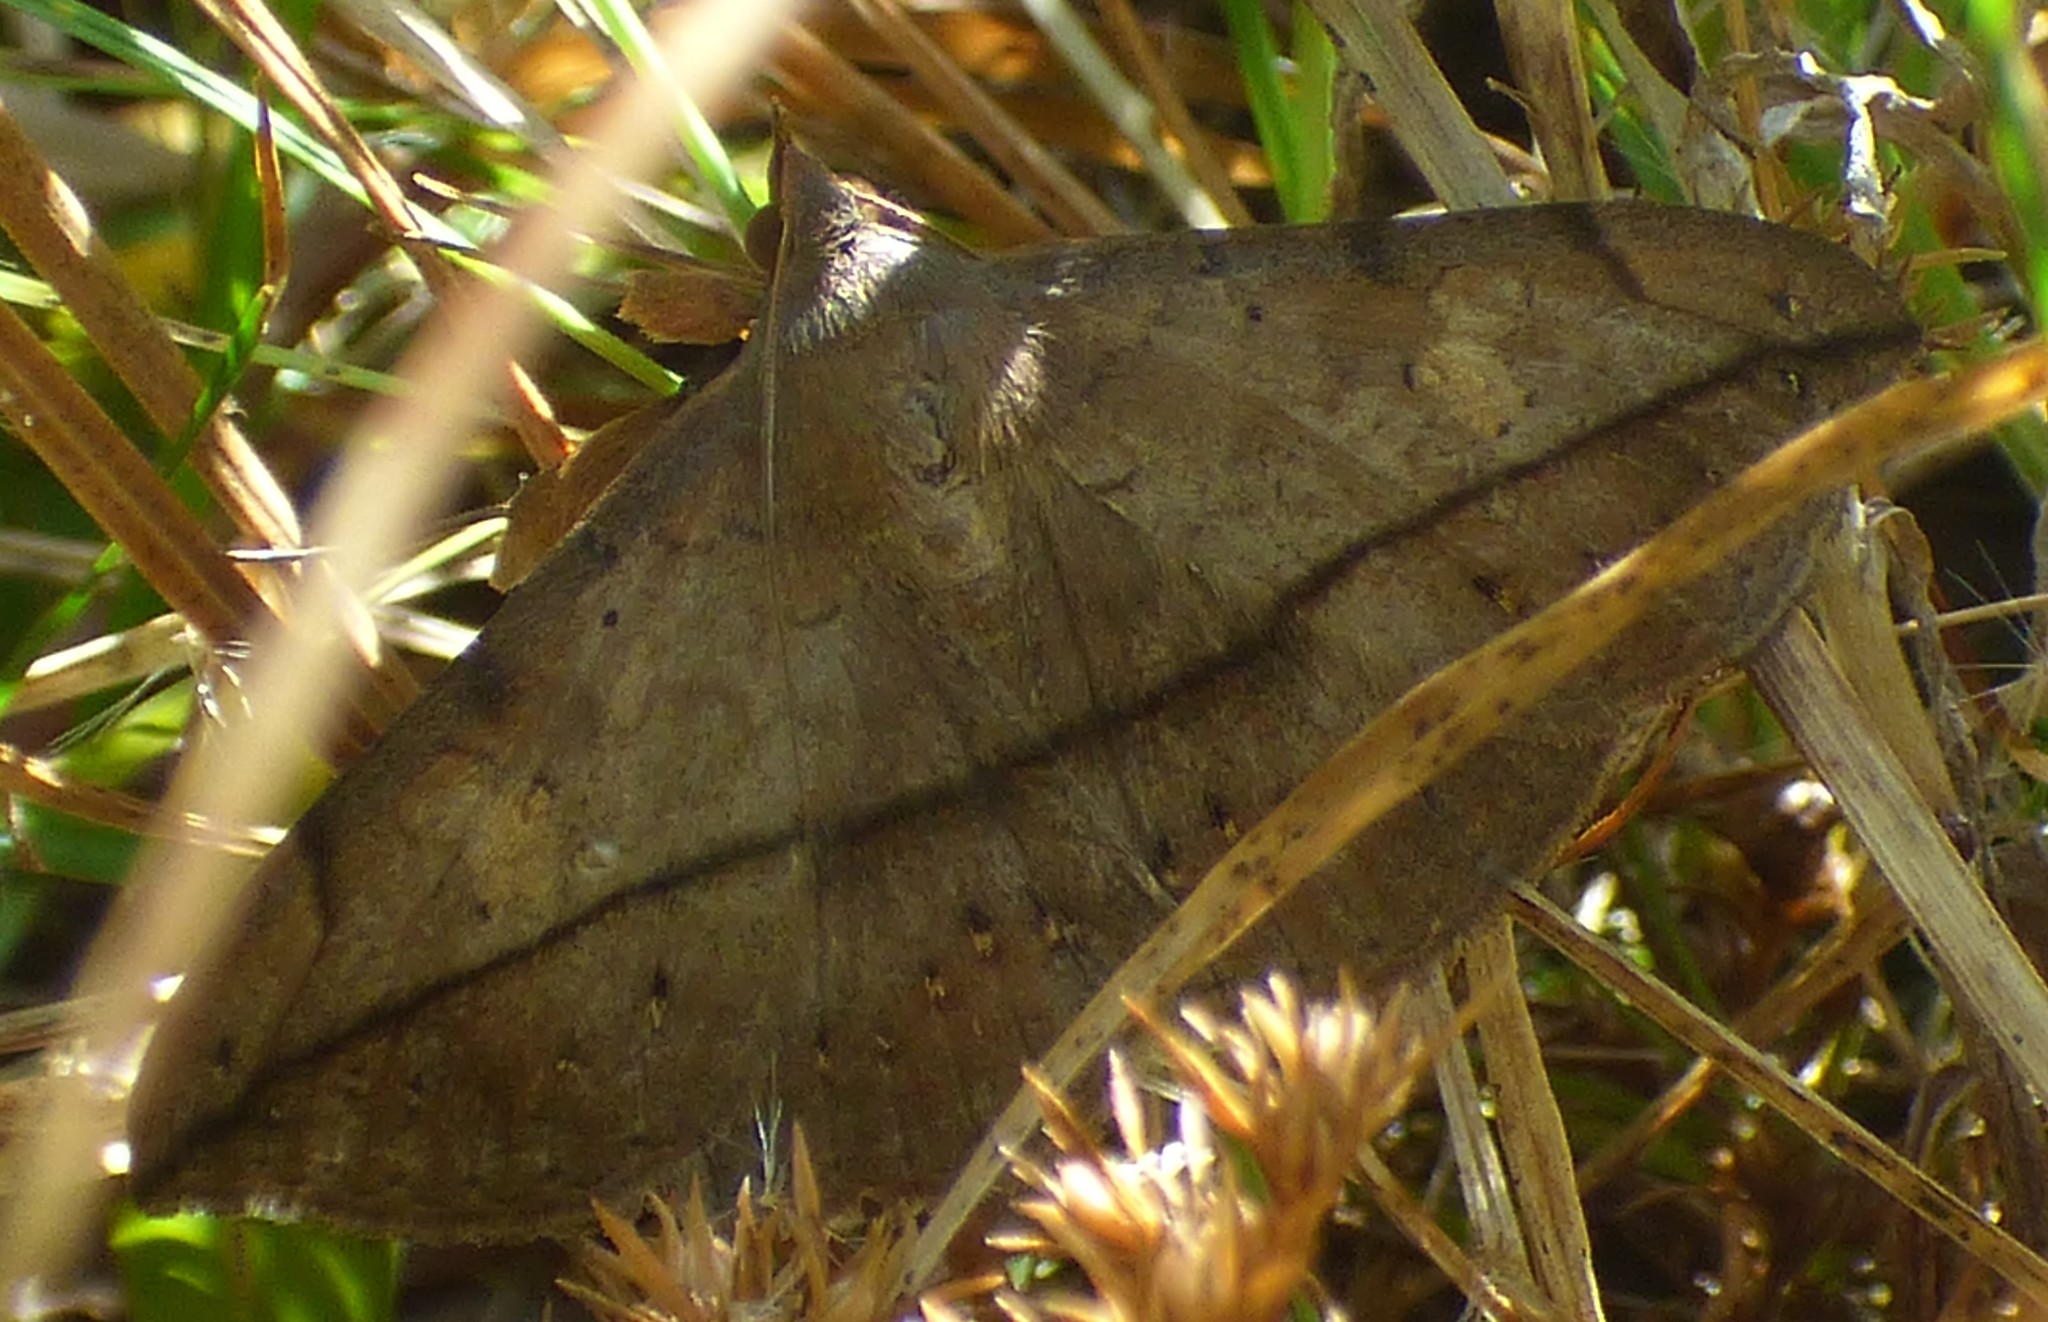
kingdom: Animalia
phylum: Arthropoda
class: Insecta
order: Lepidoptera
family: Erebidae
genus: Anticarsia
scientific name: Anticarsia gemmatalis
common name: Cutworm moth
